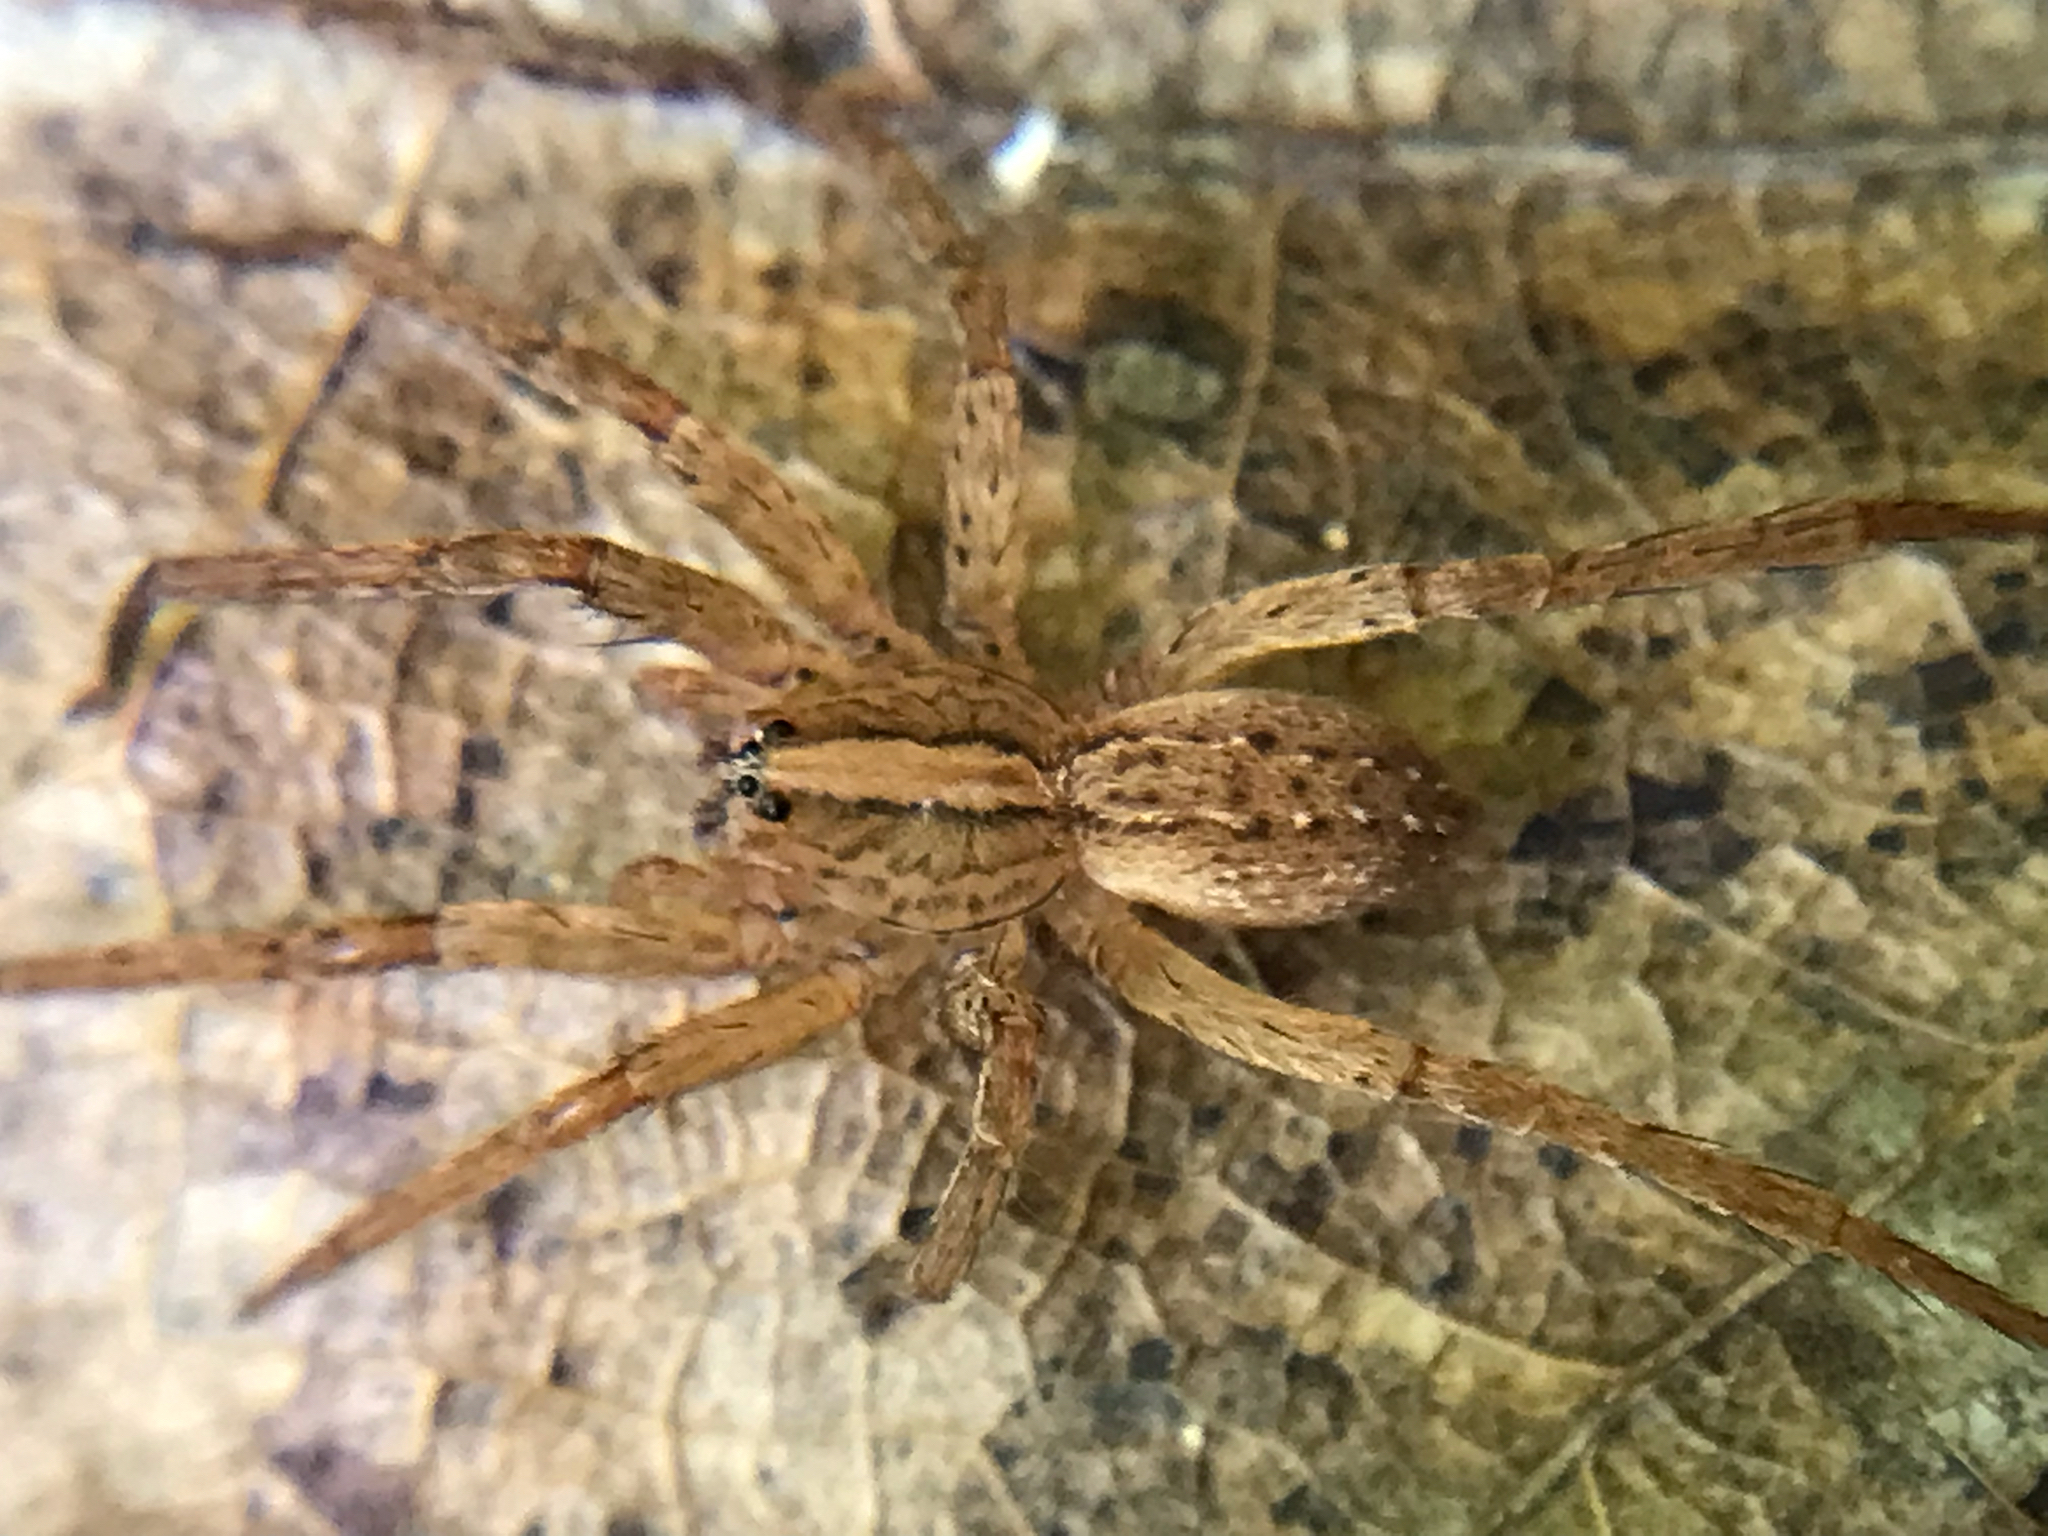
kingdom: Animalia
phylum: Arthropoda
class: Arachnida
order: Araneae
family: Ctenidae
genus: Anahita
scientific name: Anahita punctulata
